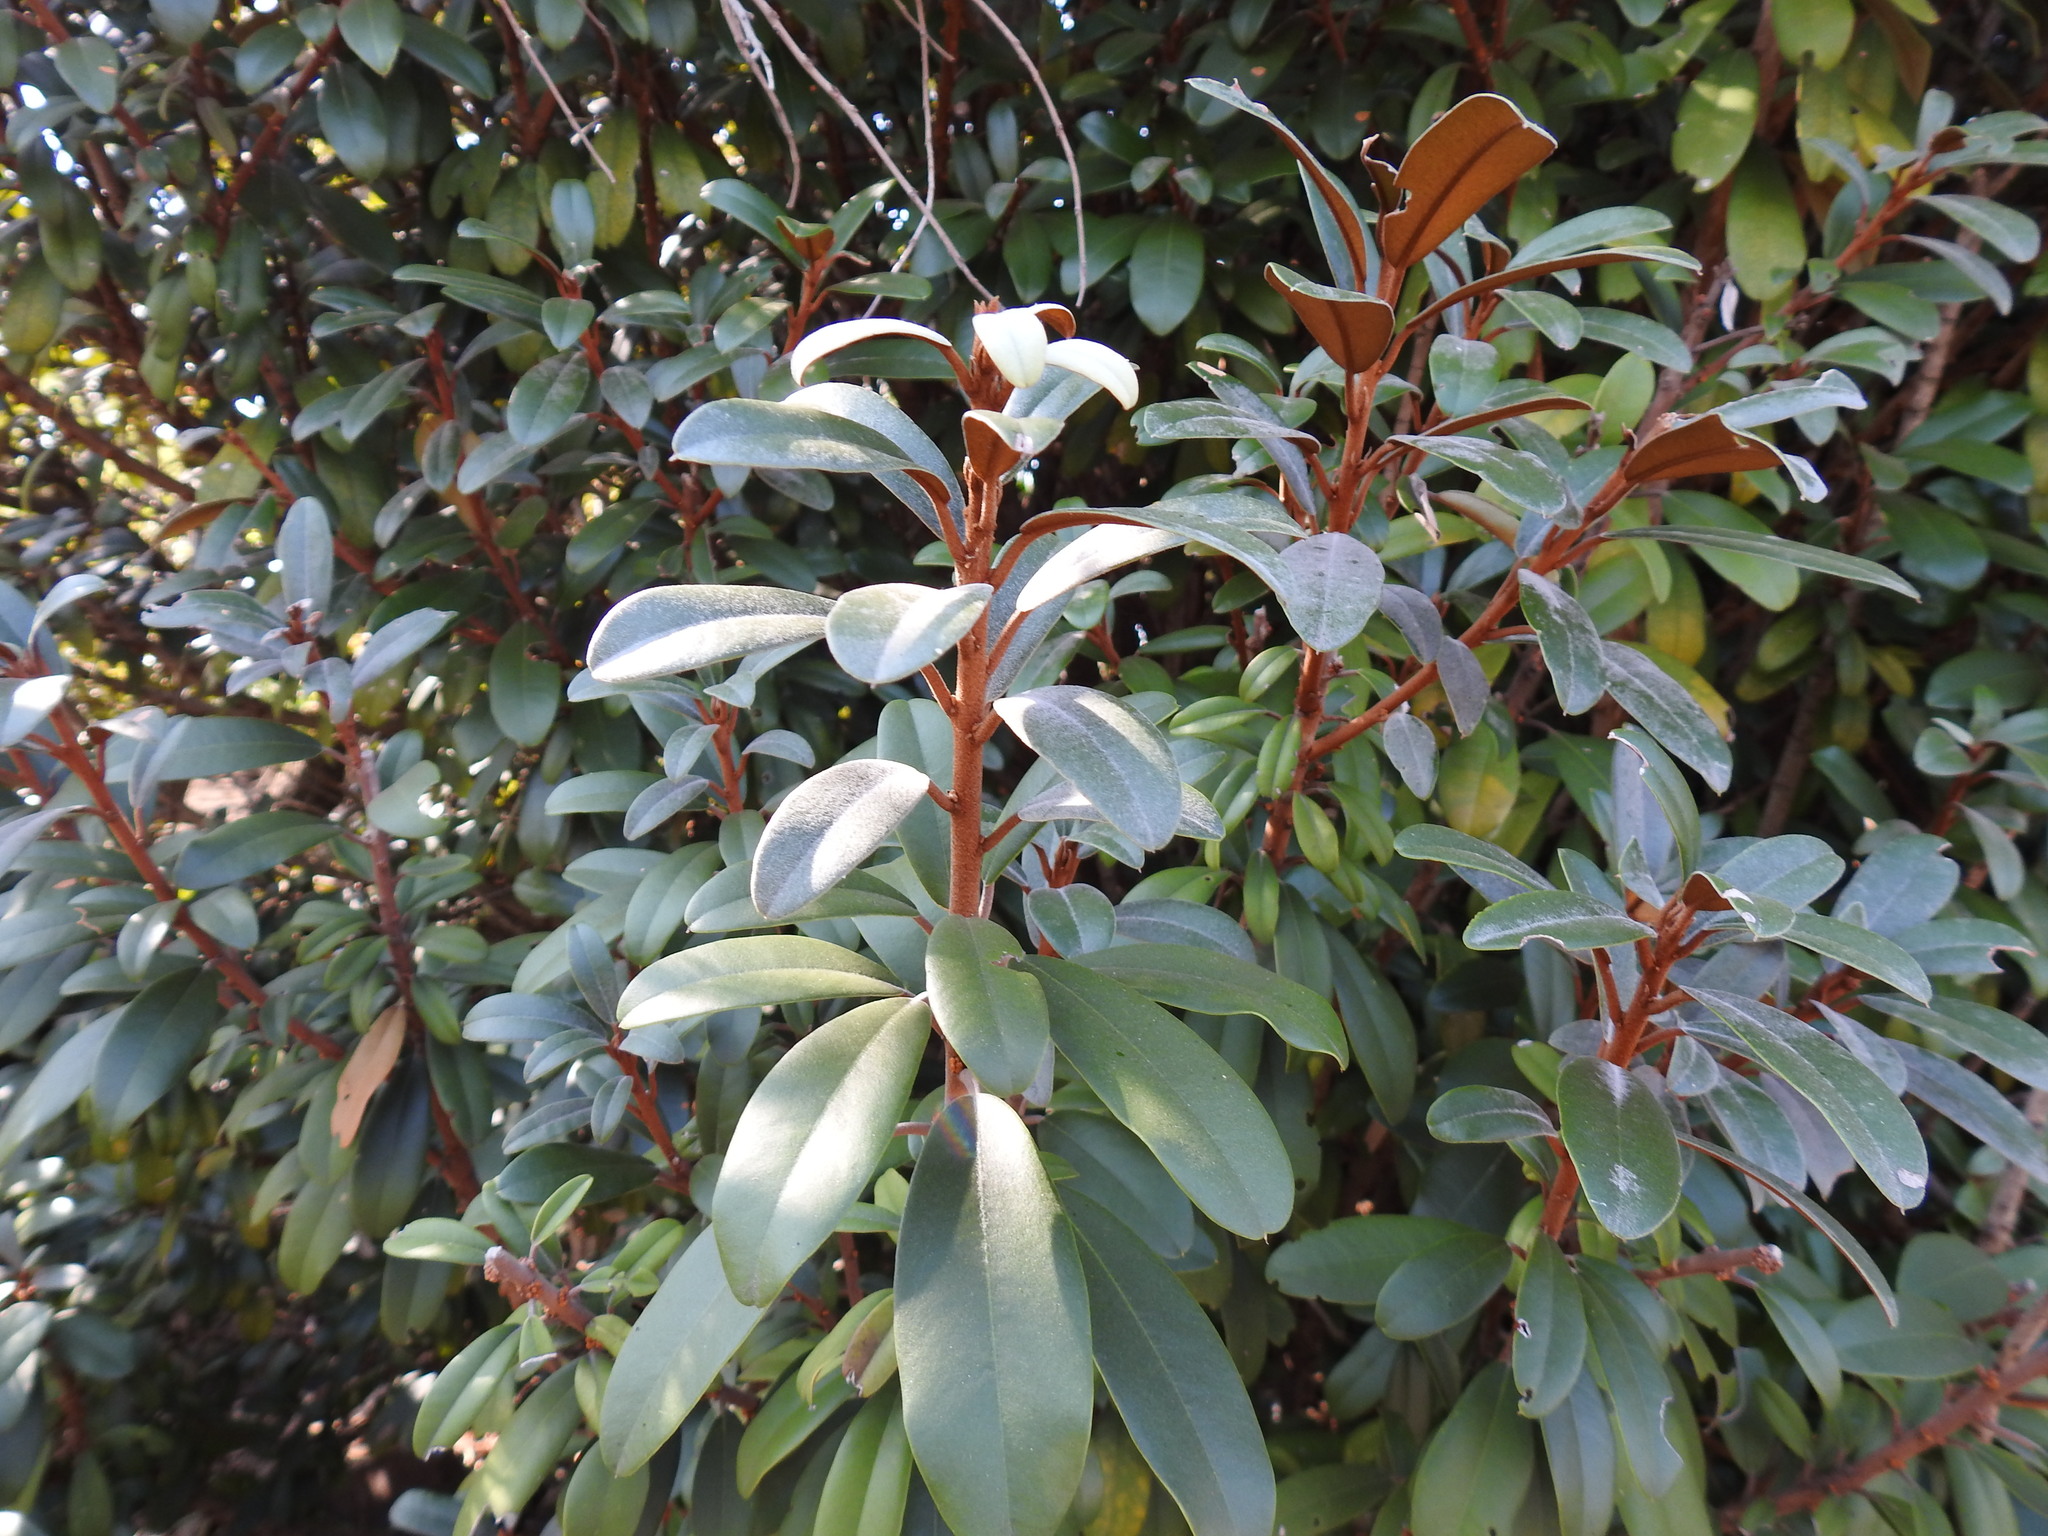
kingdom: Plantae
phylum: Tracheophyta
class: Magnoliopsida
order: Ericales
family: Sapotaceae
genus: Englerophytum
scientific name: Englerophytum magalismontanum
